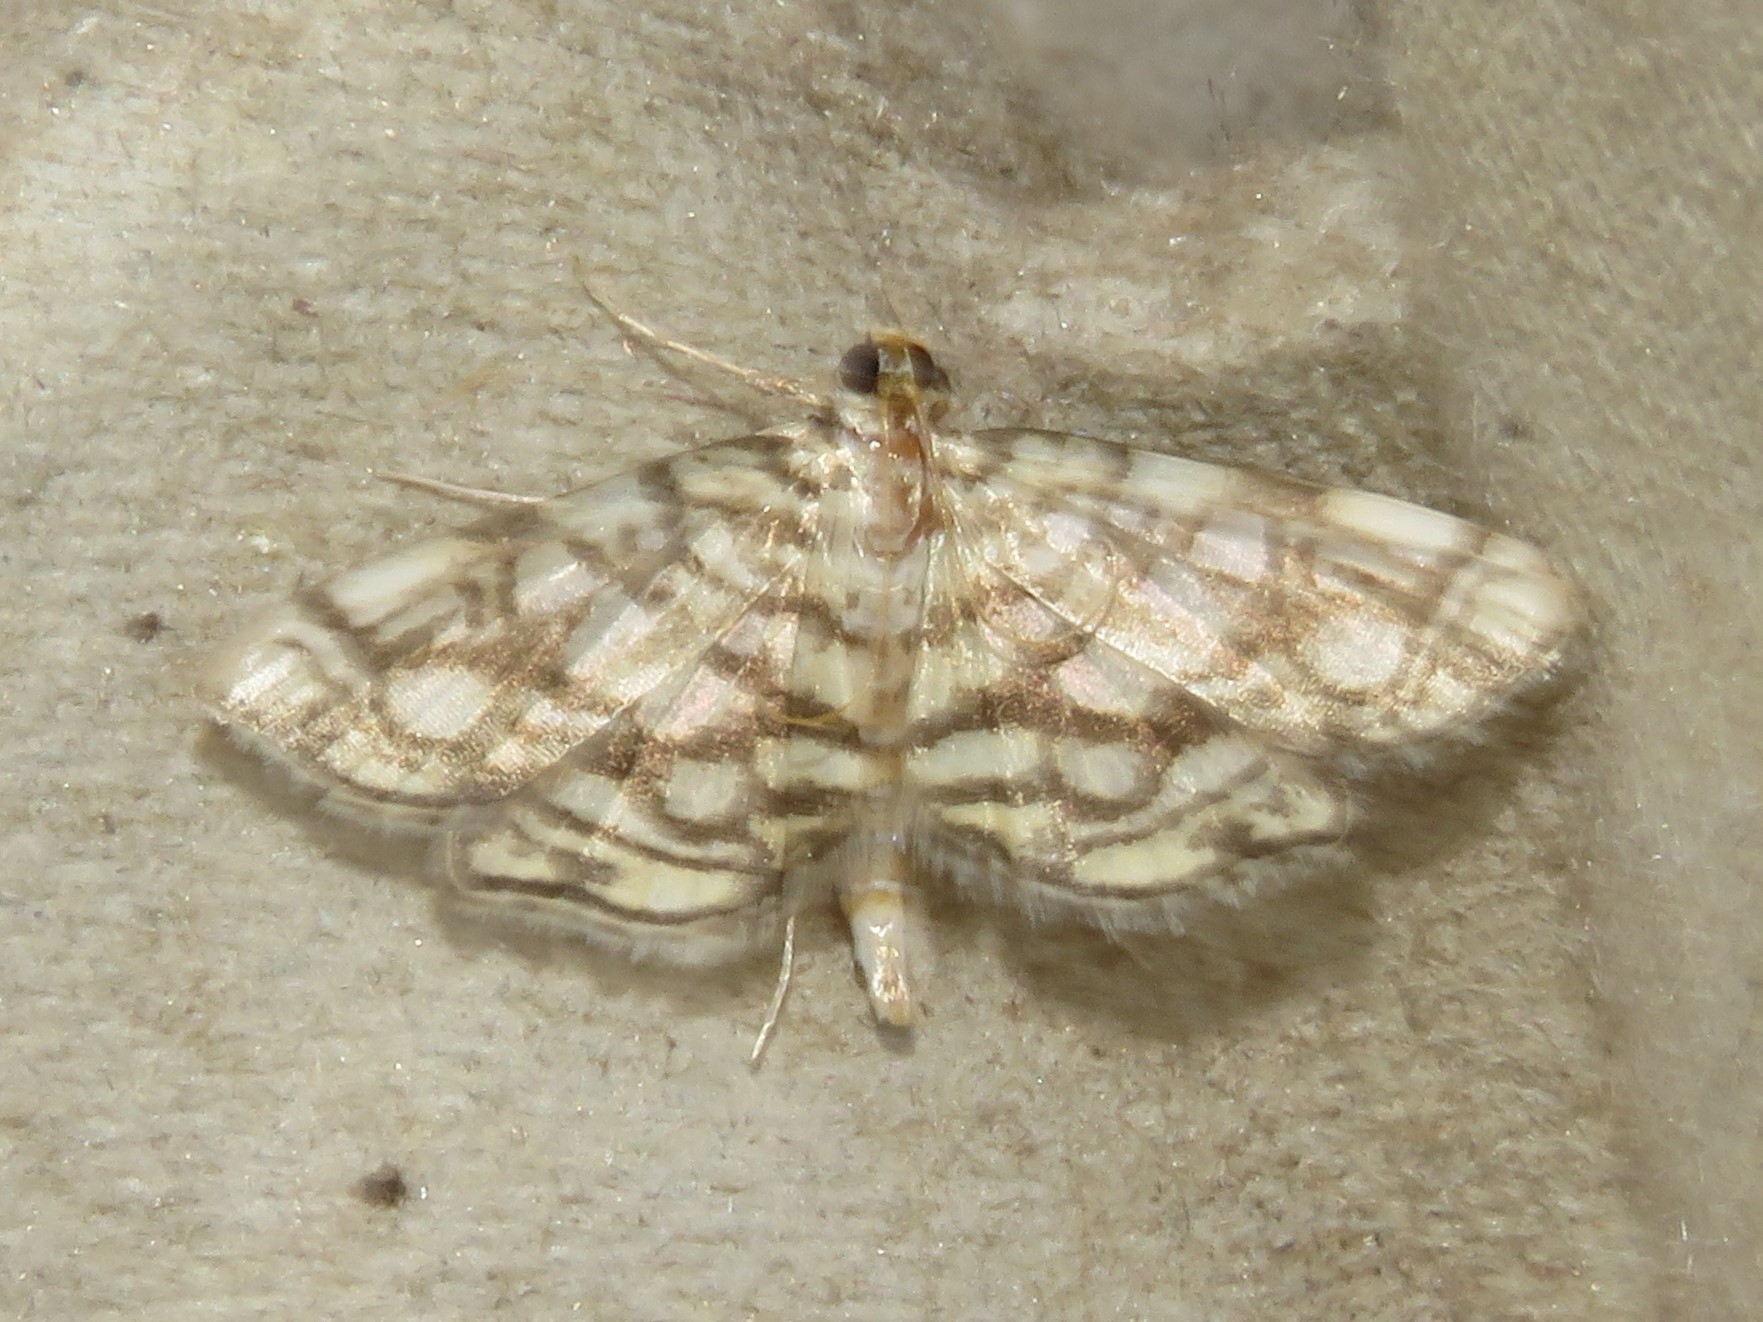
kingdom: Animalia
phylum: Arthropoda
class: Insecta
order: Lepidoptera
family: Crambidae
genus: Lygropia
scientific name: Lygropia rivulalis
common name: Bog lygropia moth
